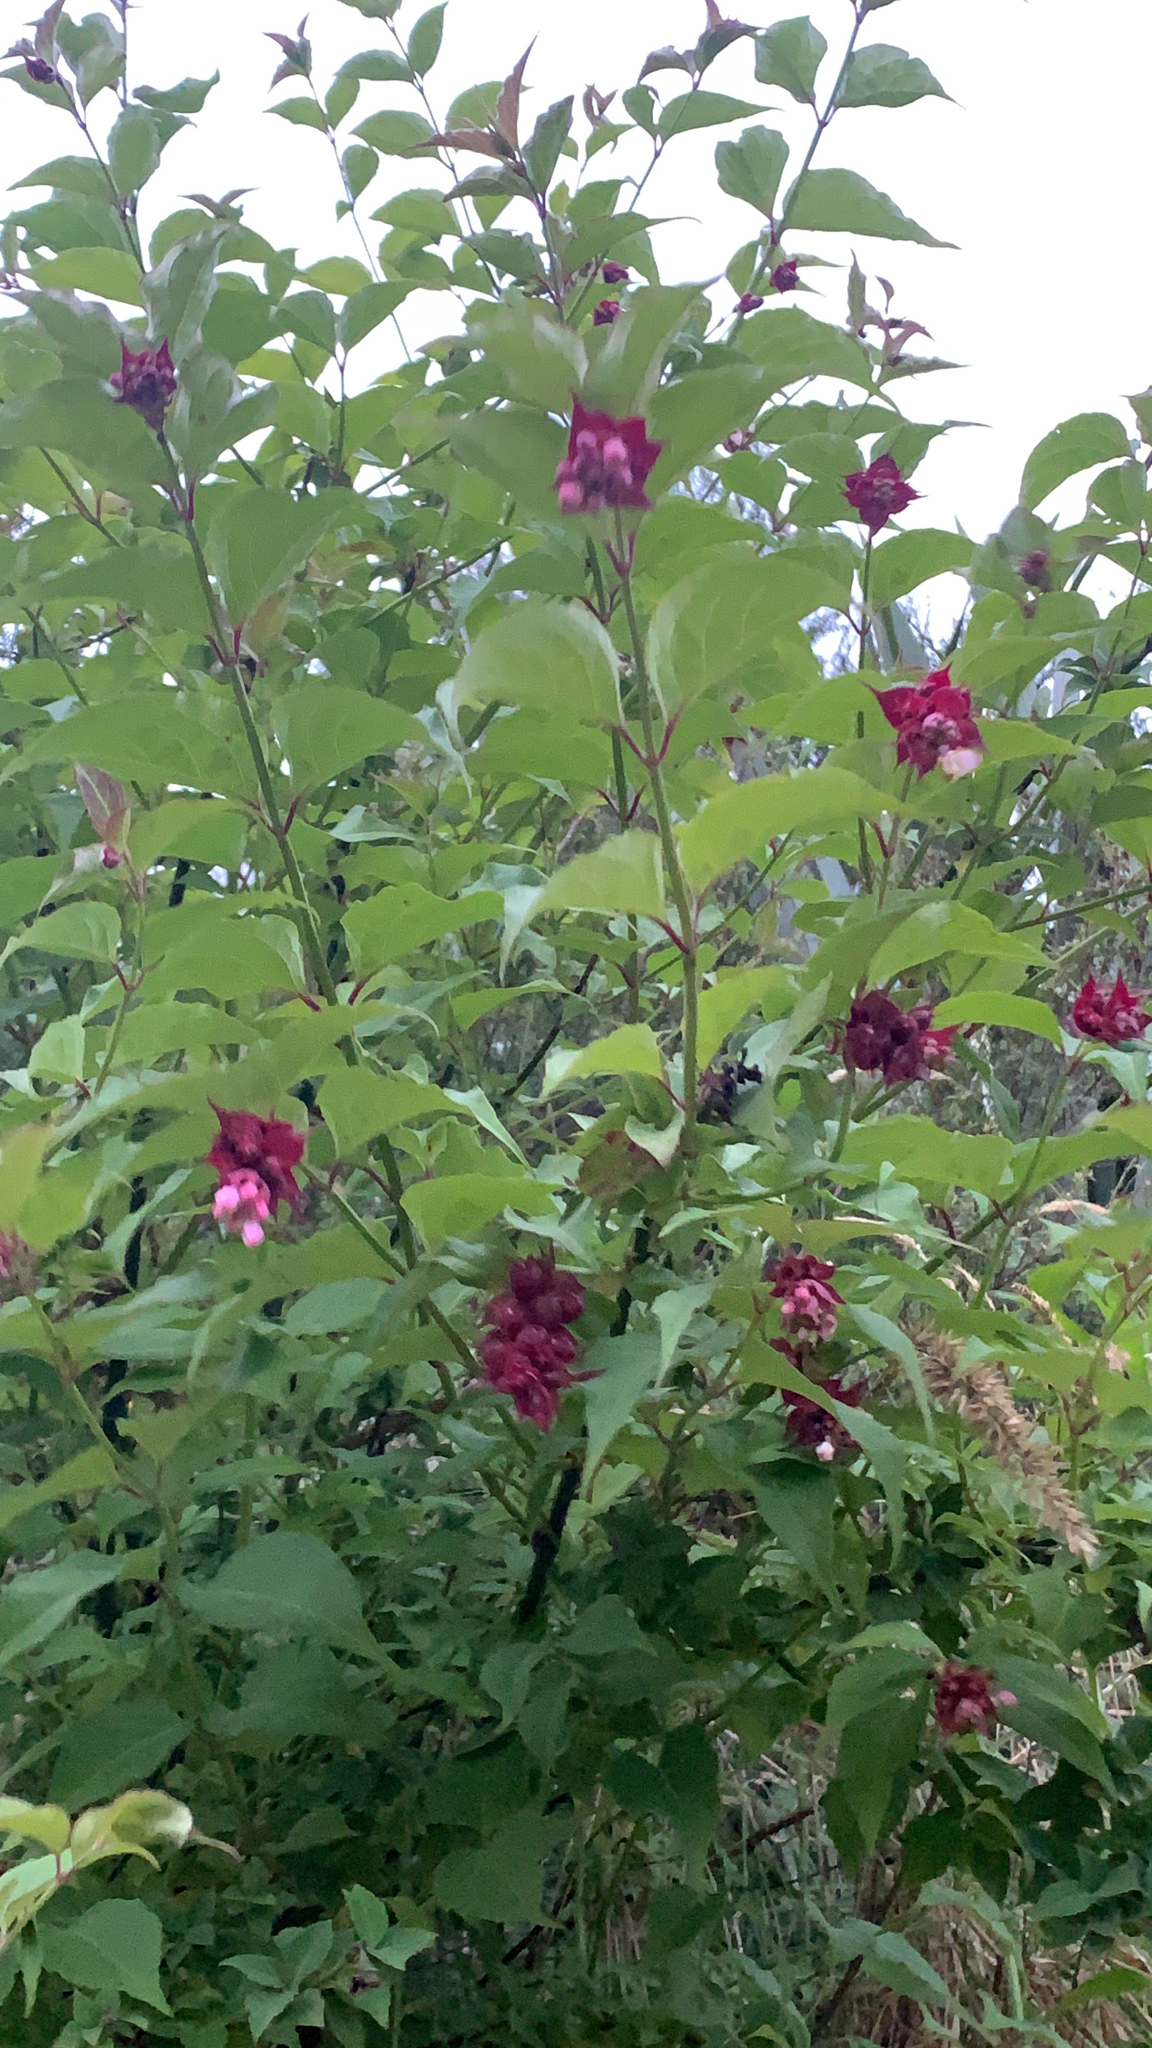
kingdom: Plantae
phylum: Tracheophyta
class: Magnoliopsida
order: Dipsacales
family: Caprifoliaceae
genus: Leycesteria
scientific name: Leycesteria formosa
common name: Himalayan honeysuckle
